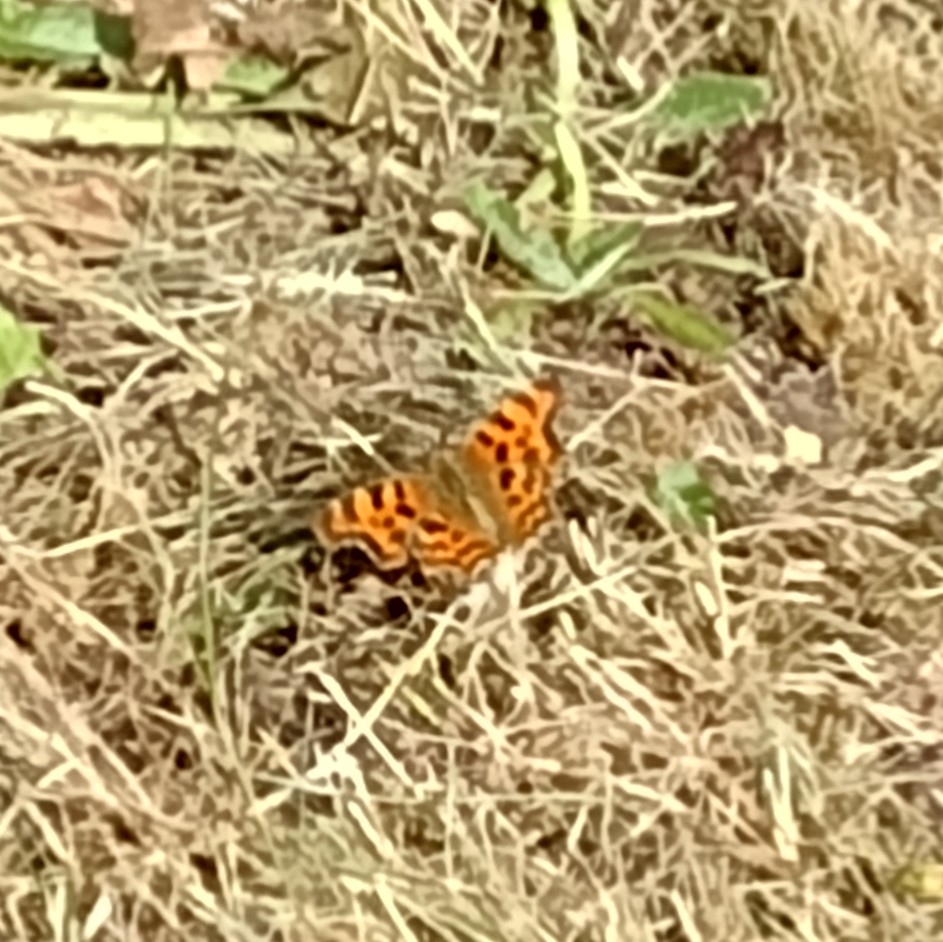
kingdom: Animalia
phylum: Arthropoda
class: Insecta
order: Lepidoptera
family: Nymphalidae
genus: Polygonia
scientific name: Polygonia c-album
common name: Comma
